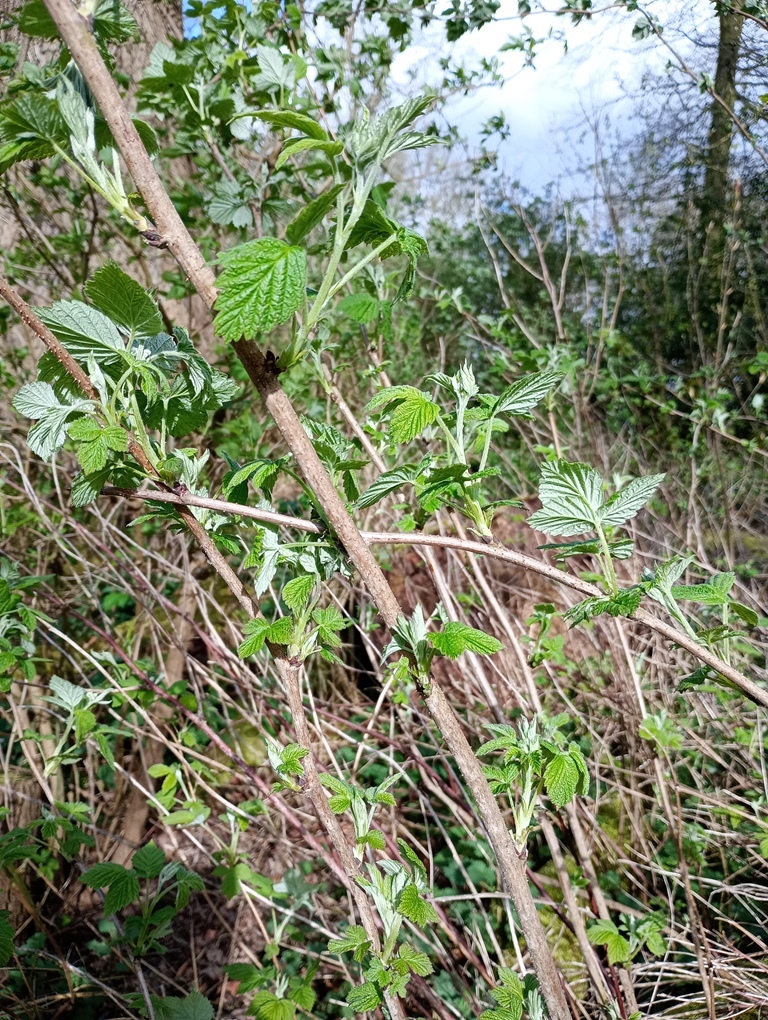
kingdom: Plantae
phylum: Tracheophyta
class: Magnoliopsida
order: Rosales
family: Rosaceae
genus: Rubus
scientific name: Rubus idaeus
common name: Raspberry
